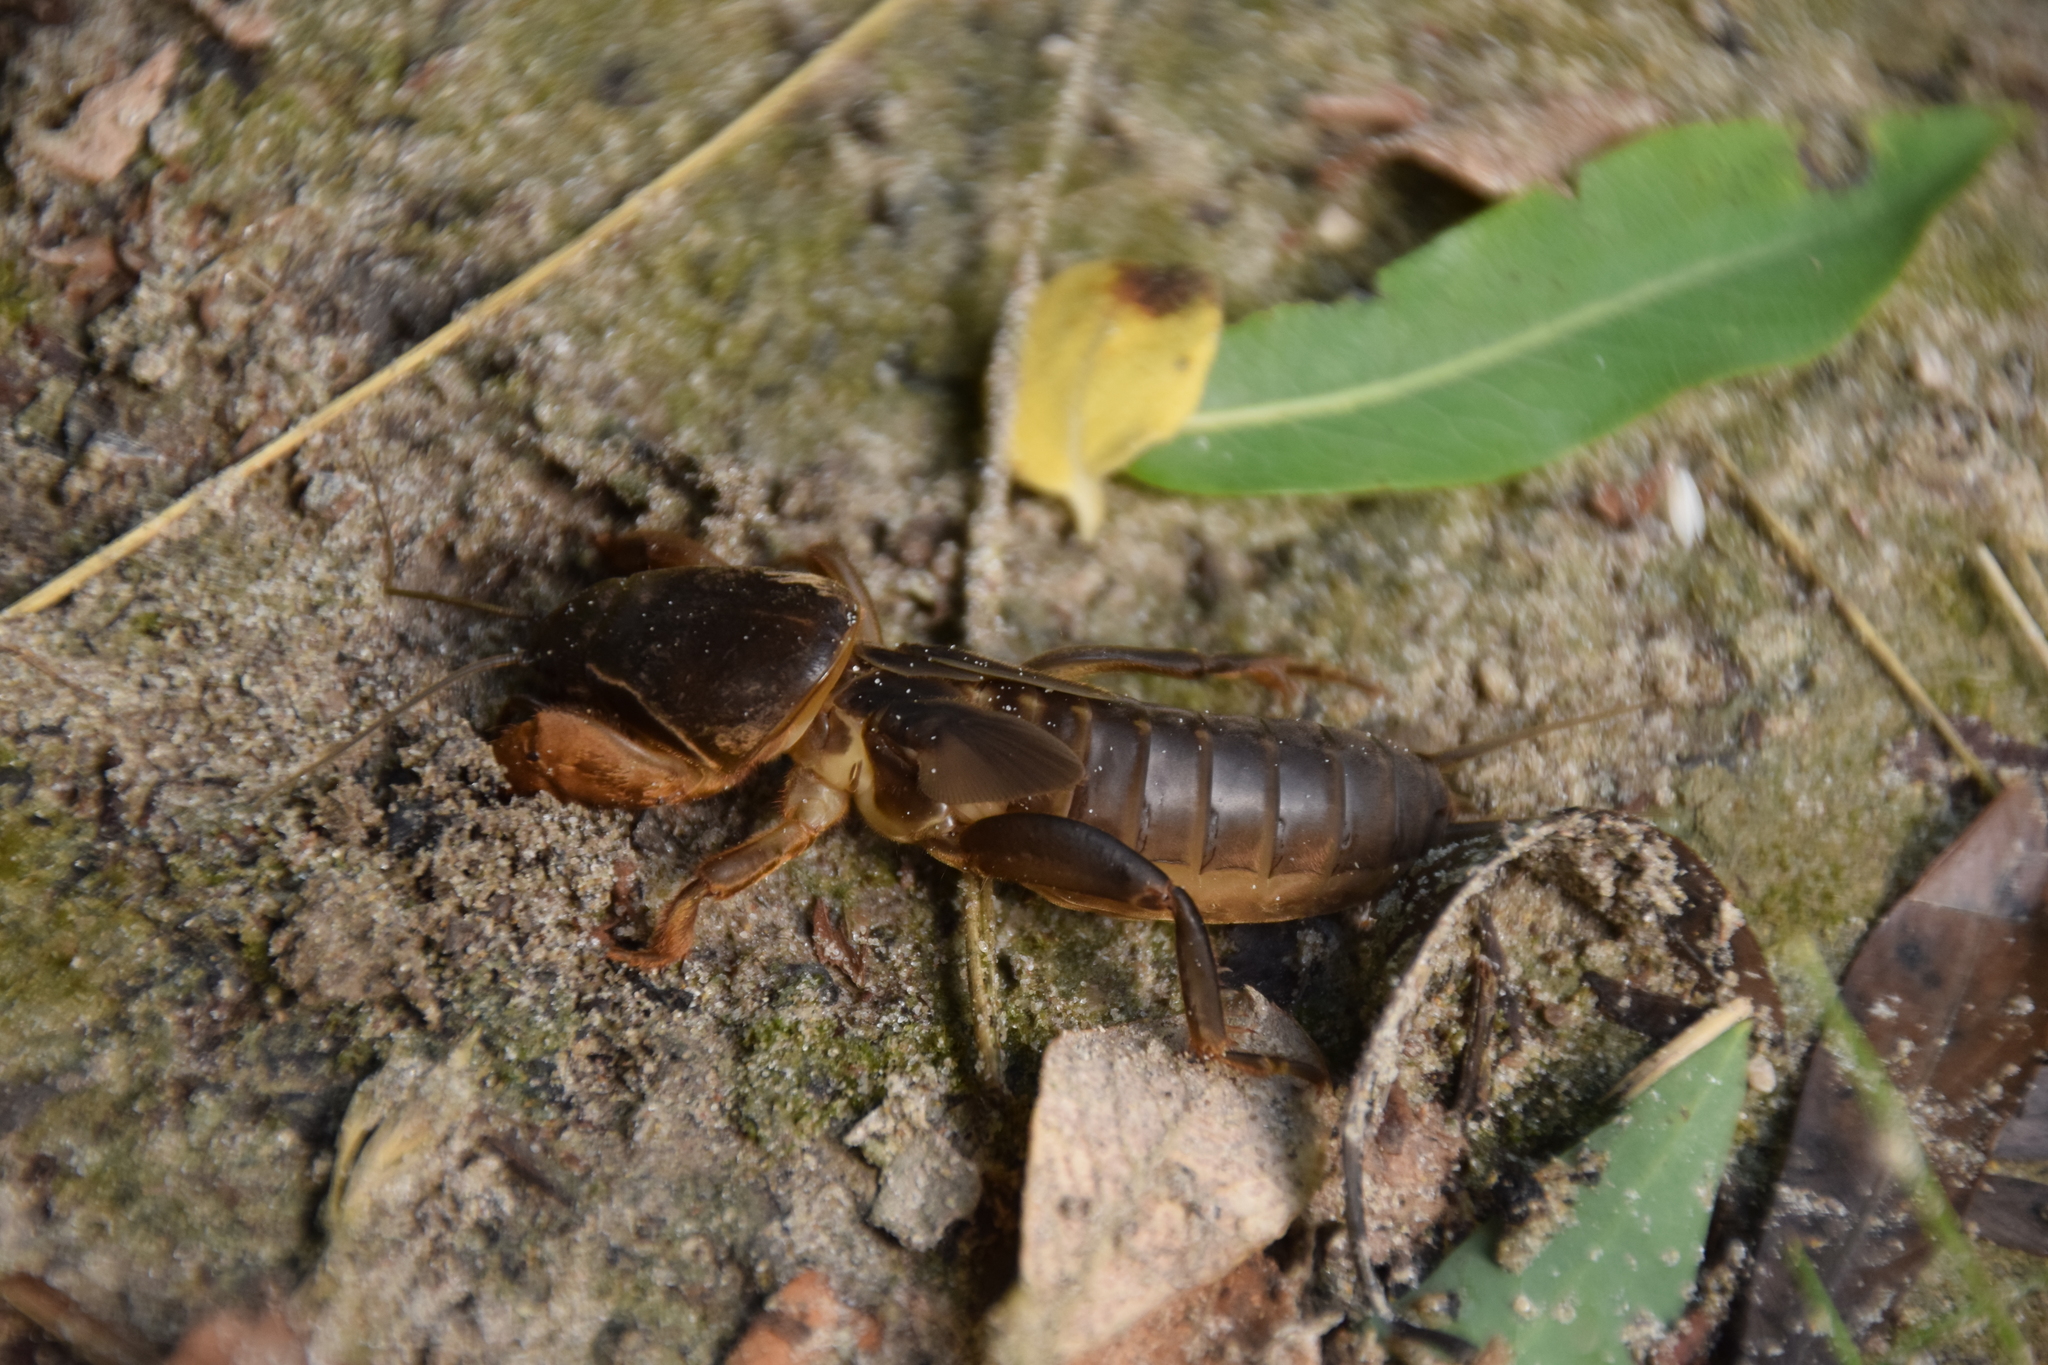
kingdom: Animalia
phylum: Arthropoda
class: Insecta
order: Orthoptera
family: Gryllotalpidae
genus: Gryllotalpa
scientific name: Gryllotalpa gryllotalpa
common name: European mole cricket
